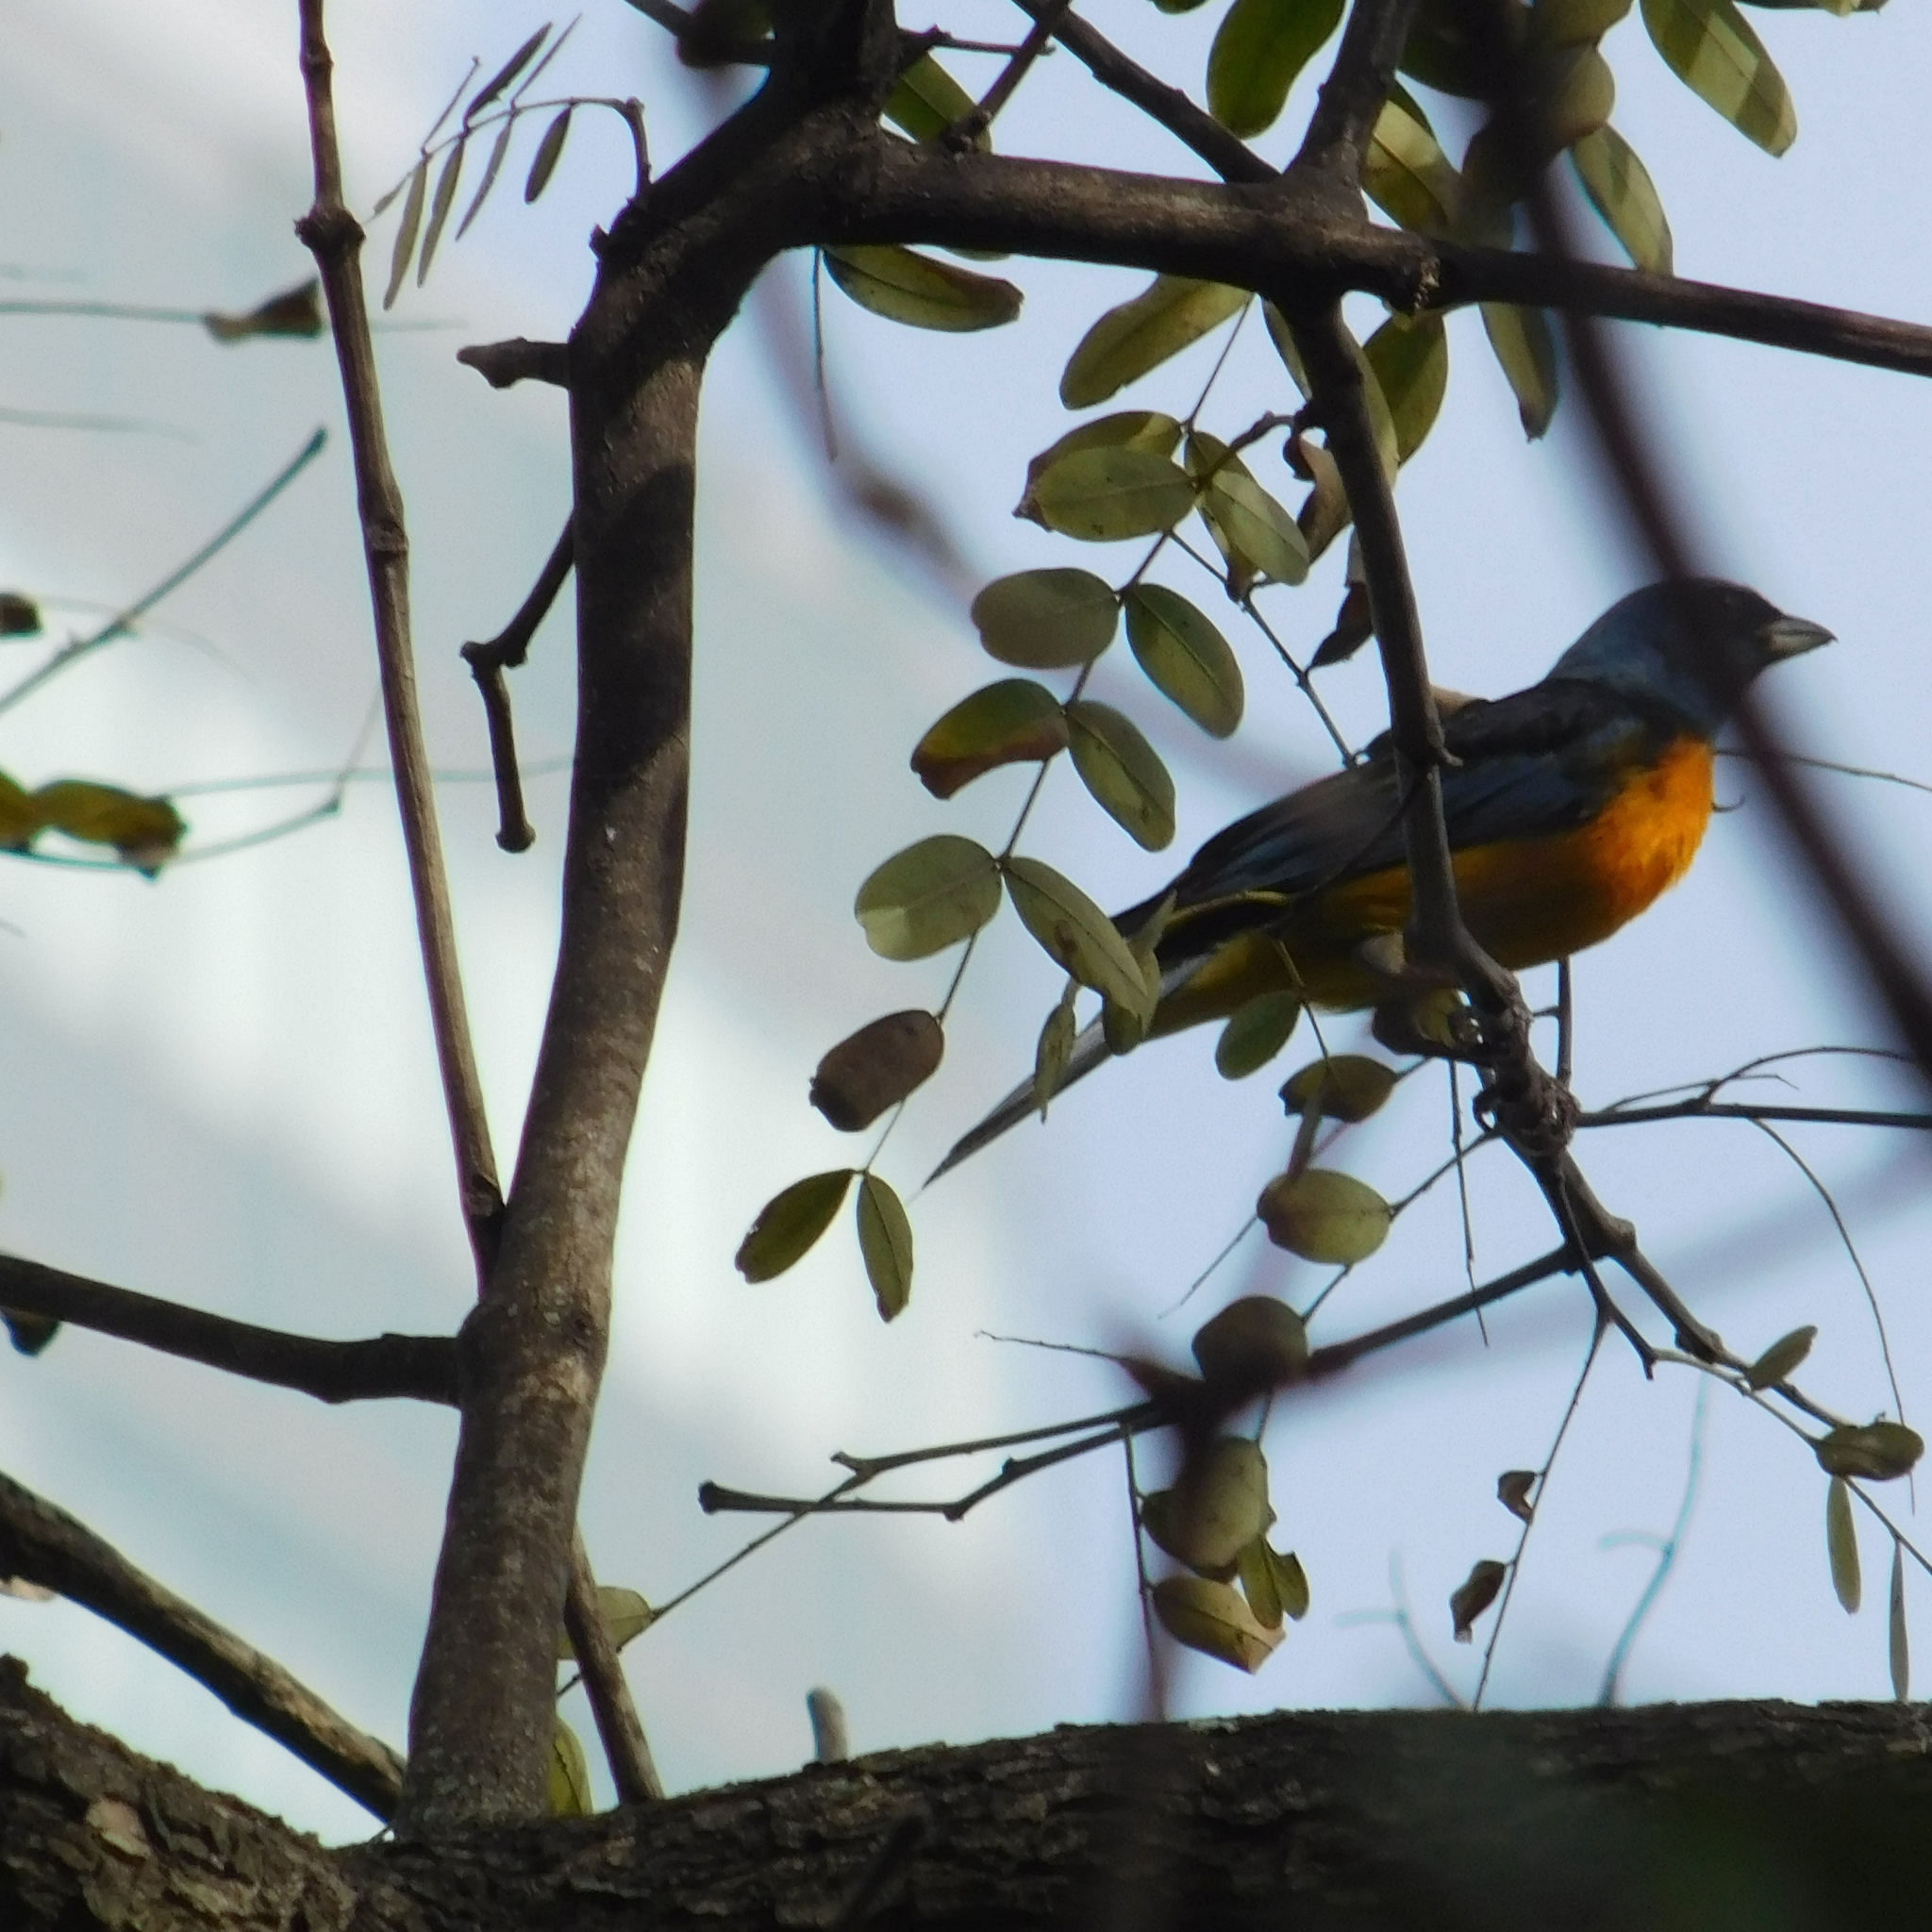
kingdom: Animalia
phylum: Chordata
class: Aves
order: Passeriformes
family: Thraupidae
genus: Rauenia
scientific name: Rauenia bonariensis
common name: Blue-and-yellow tanager
